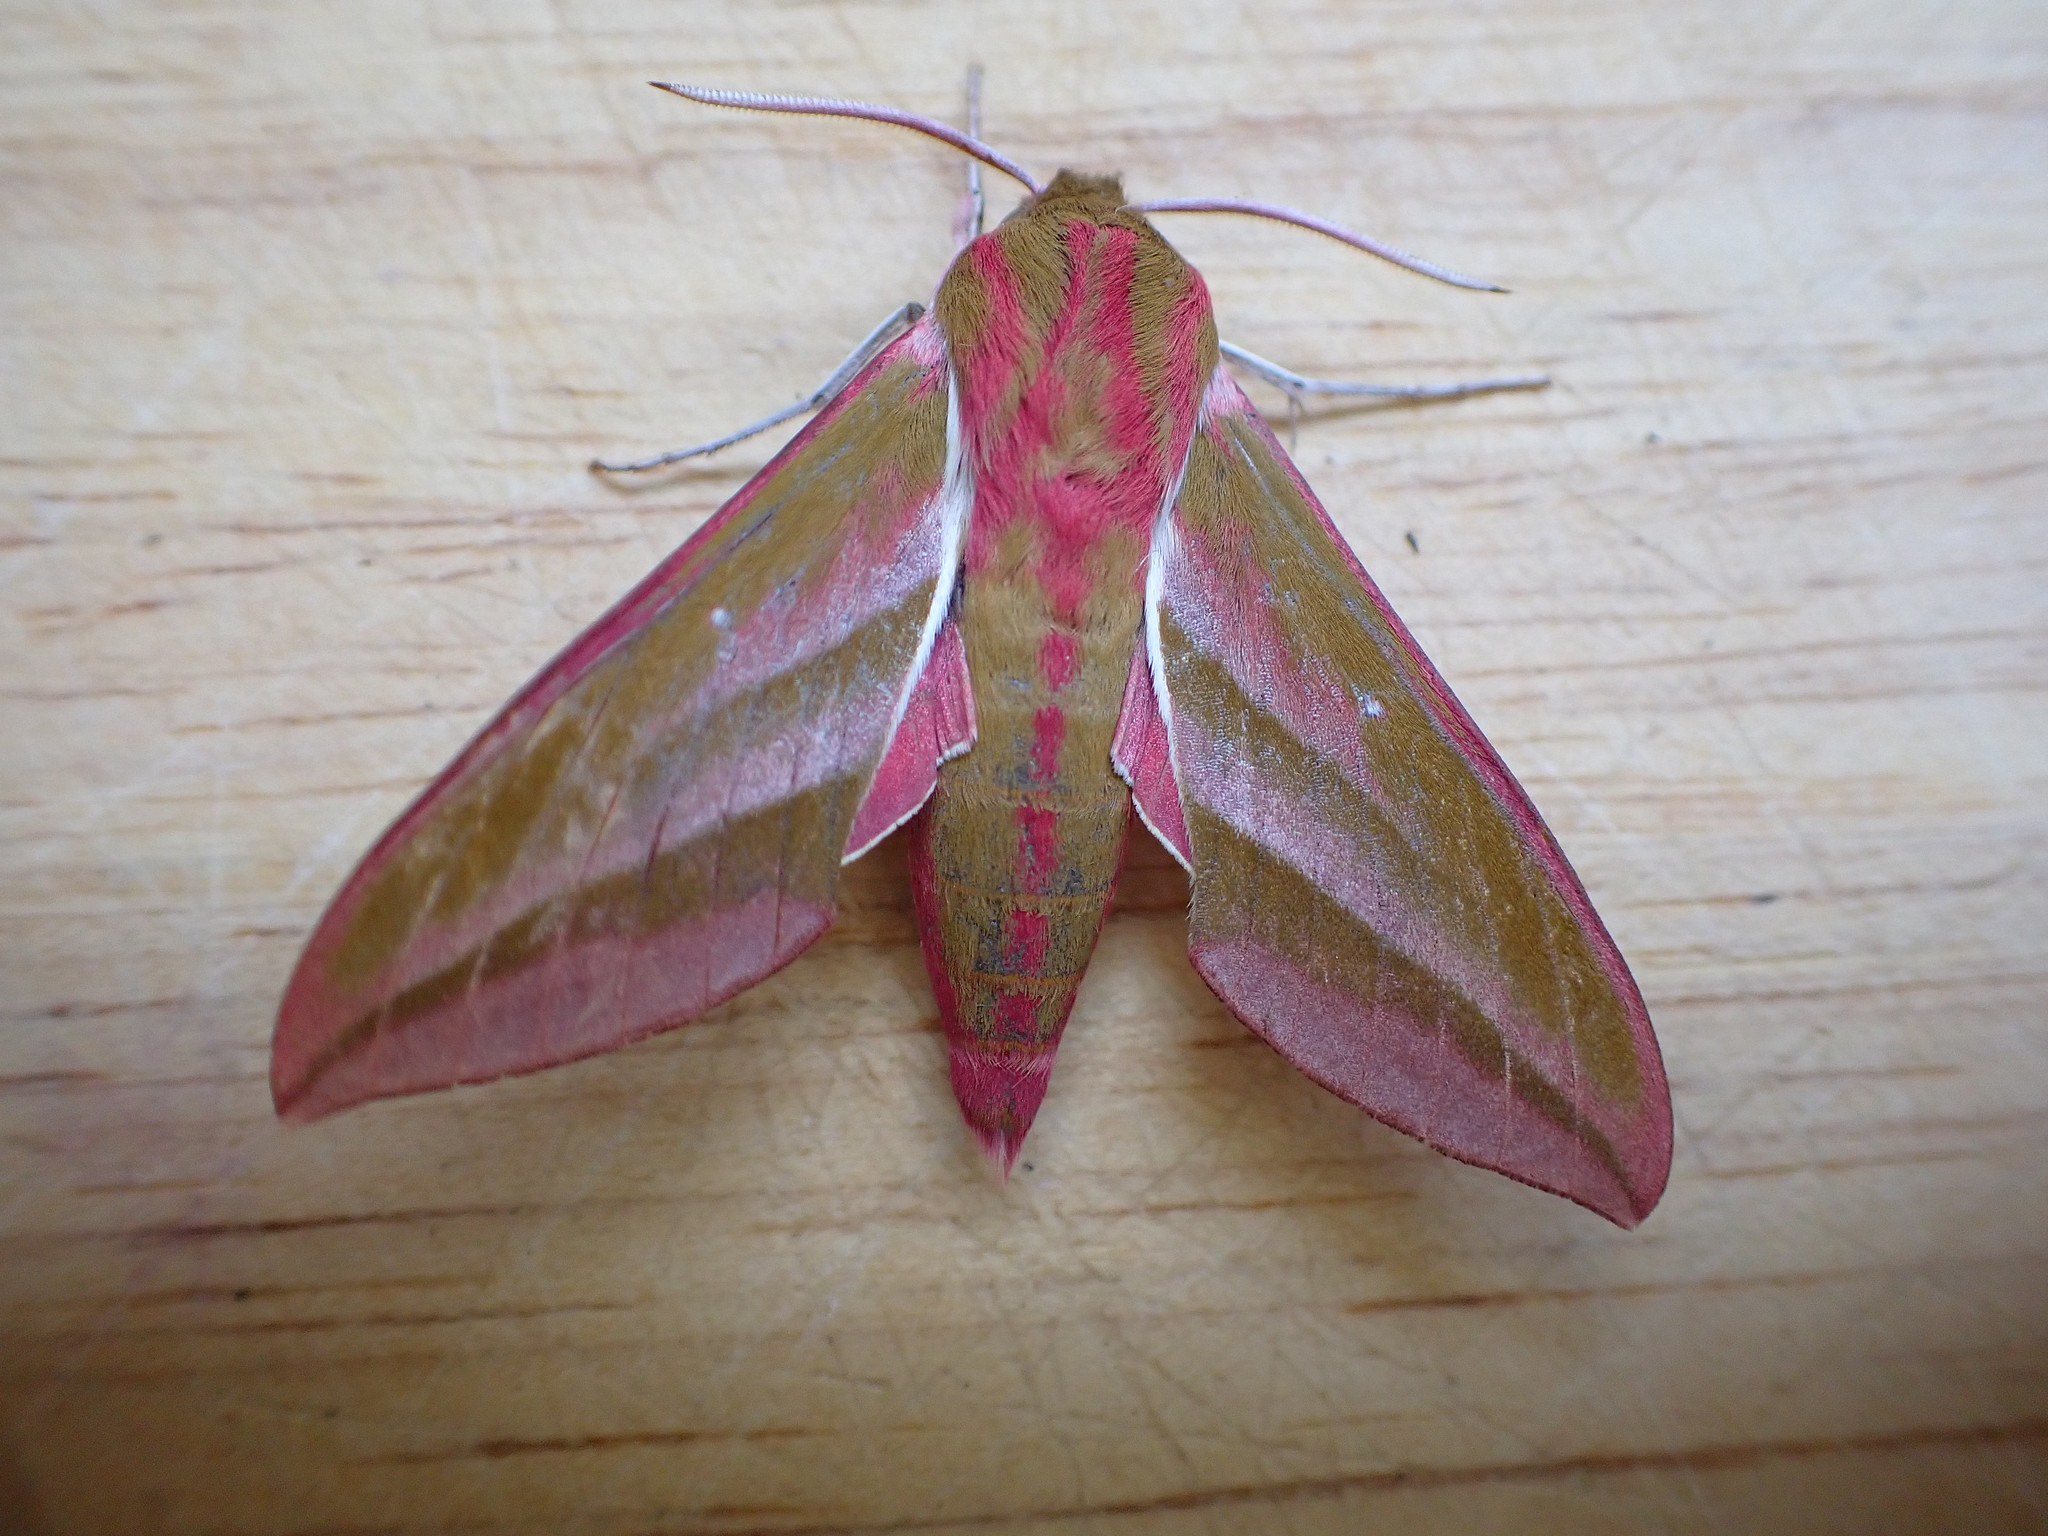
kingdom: Animalia
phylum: Arthropoda
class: Insecta
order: Lepidoptera
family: Sphingidae
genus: Deilephila
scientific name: Deilephila elpenor
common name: Elephant hawk-moth
